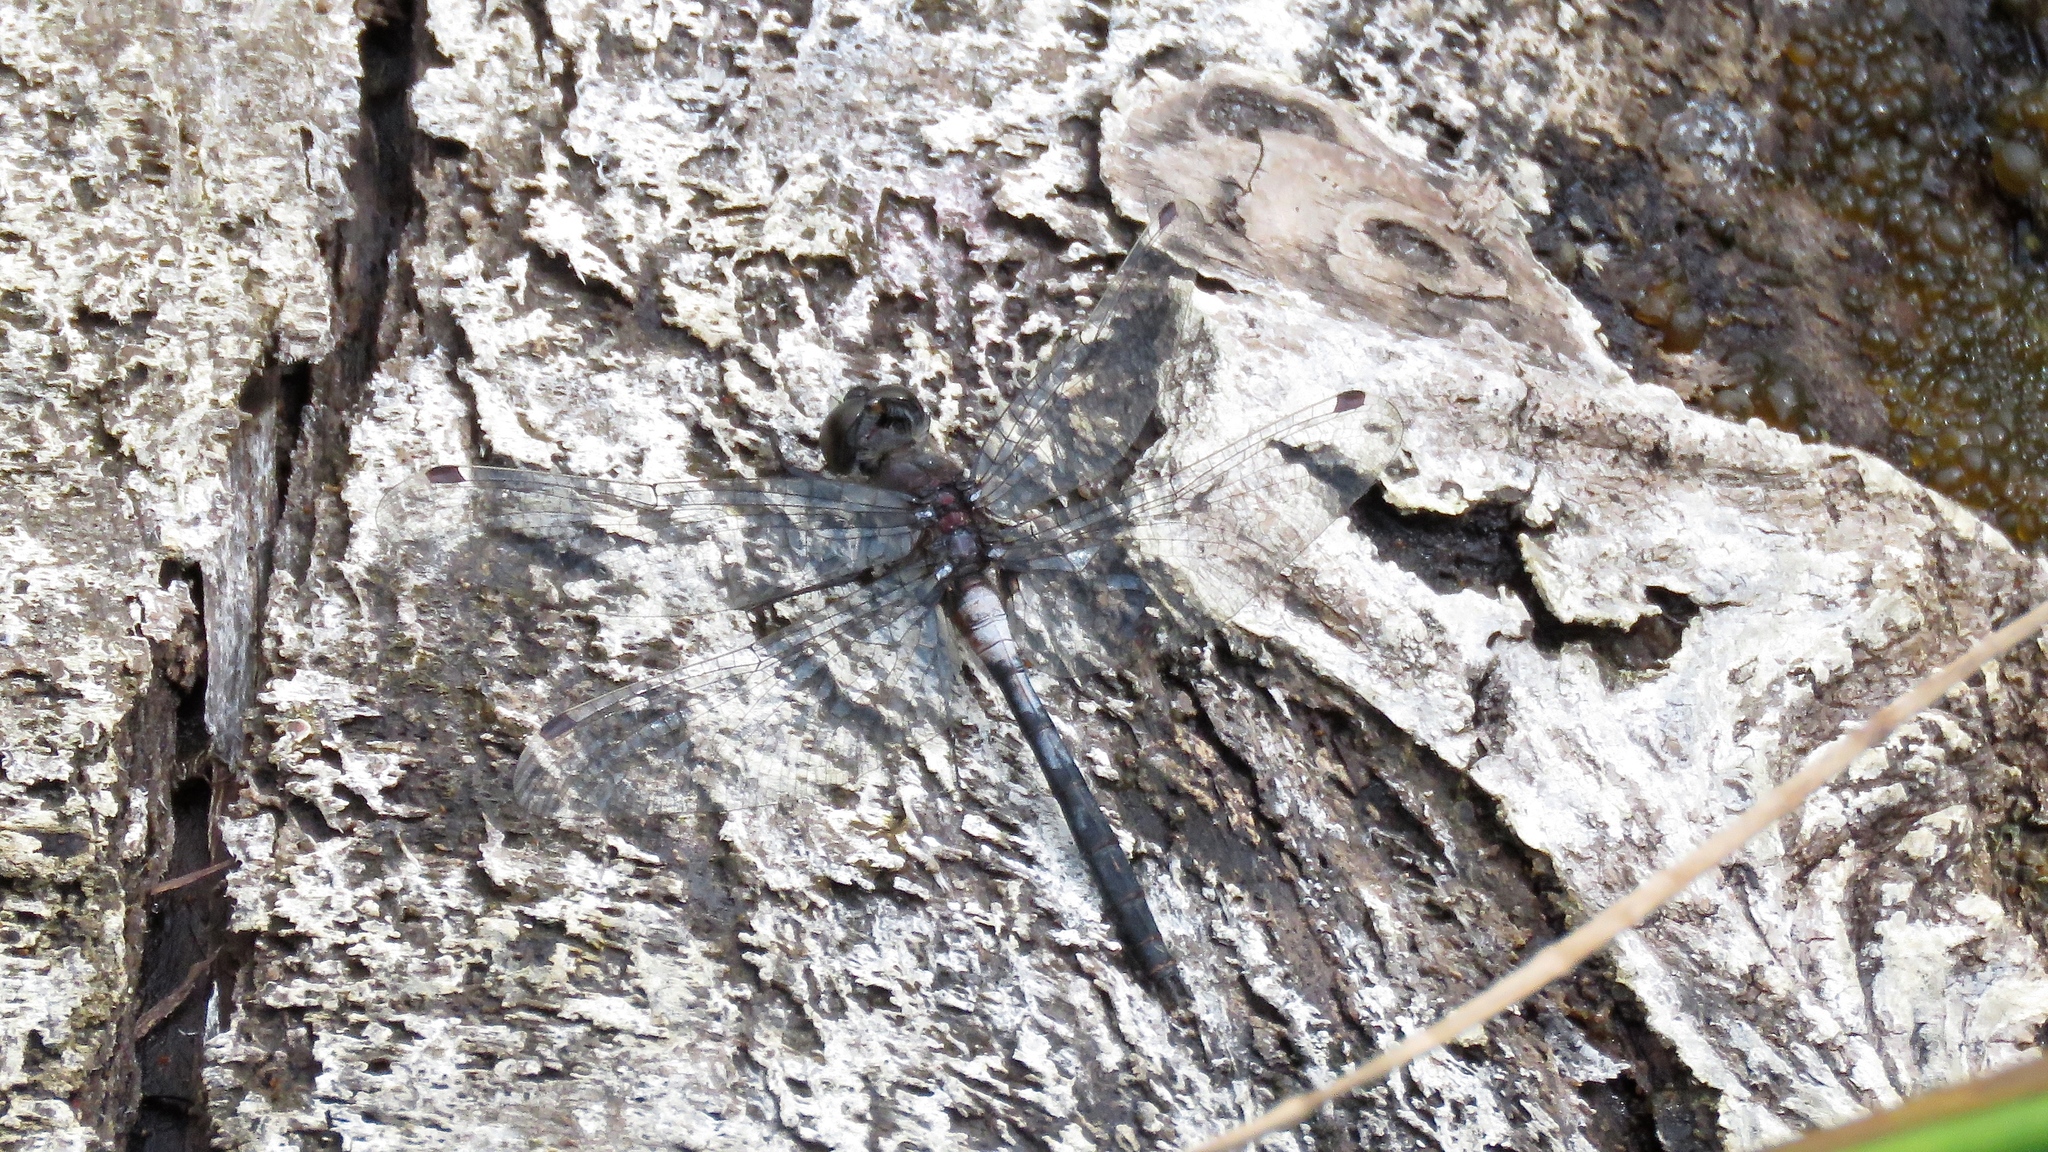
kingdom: Animalia
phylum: Arthropoda
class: Insecta
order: Odonata
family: Libellulidae
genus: Leucorrhinia
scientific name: Leucorrhinia proxima
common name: Belted whiteface
